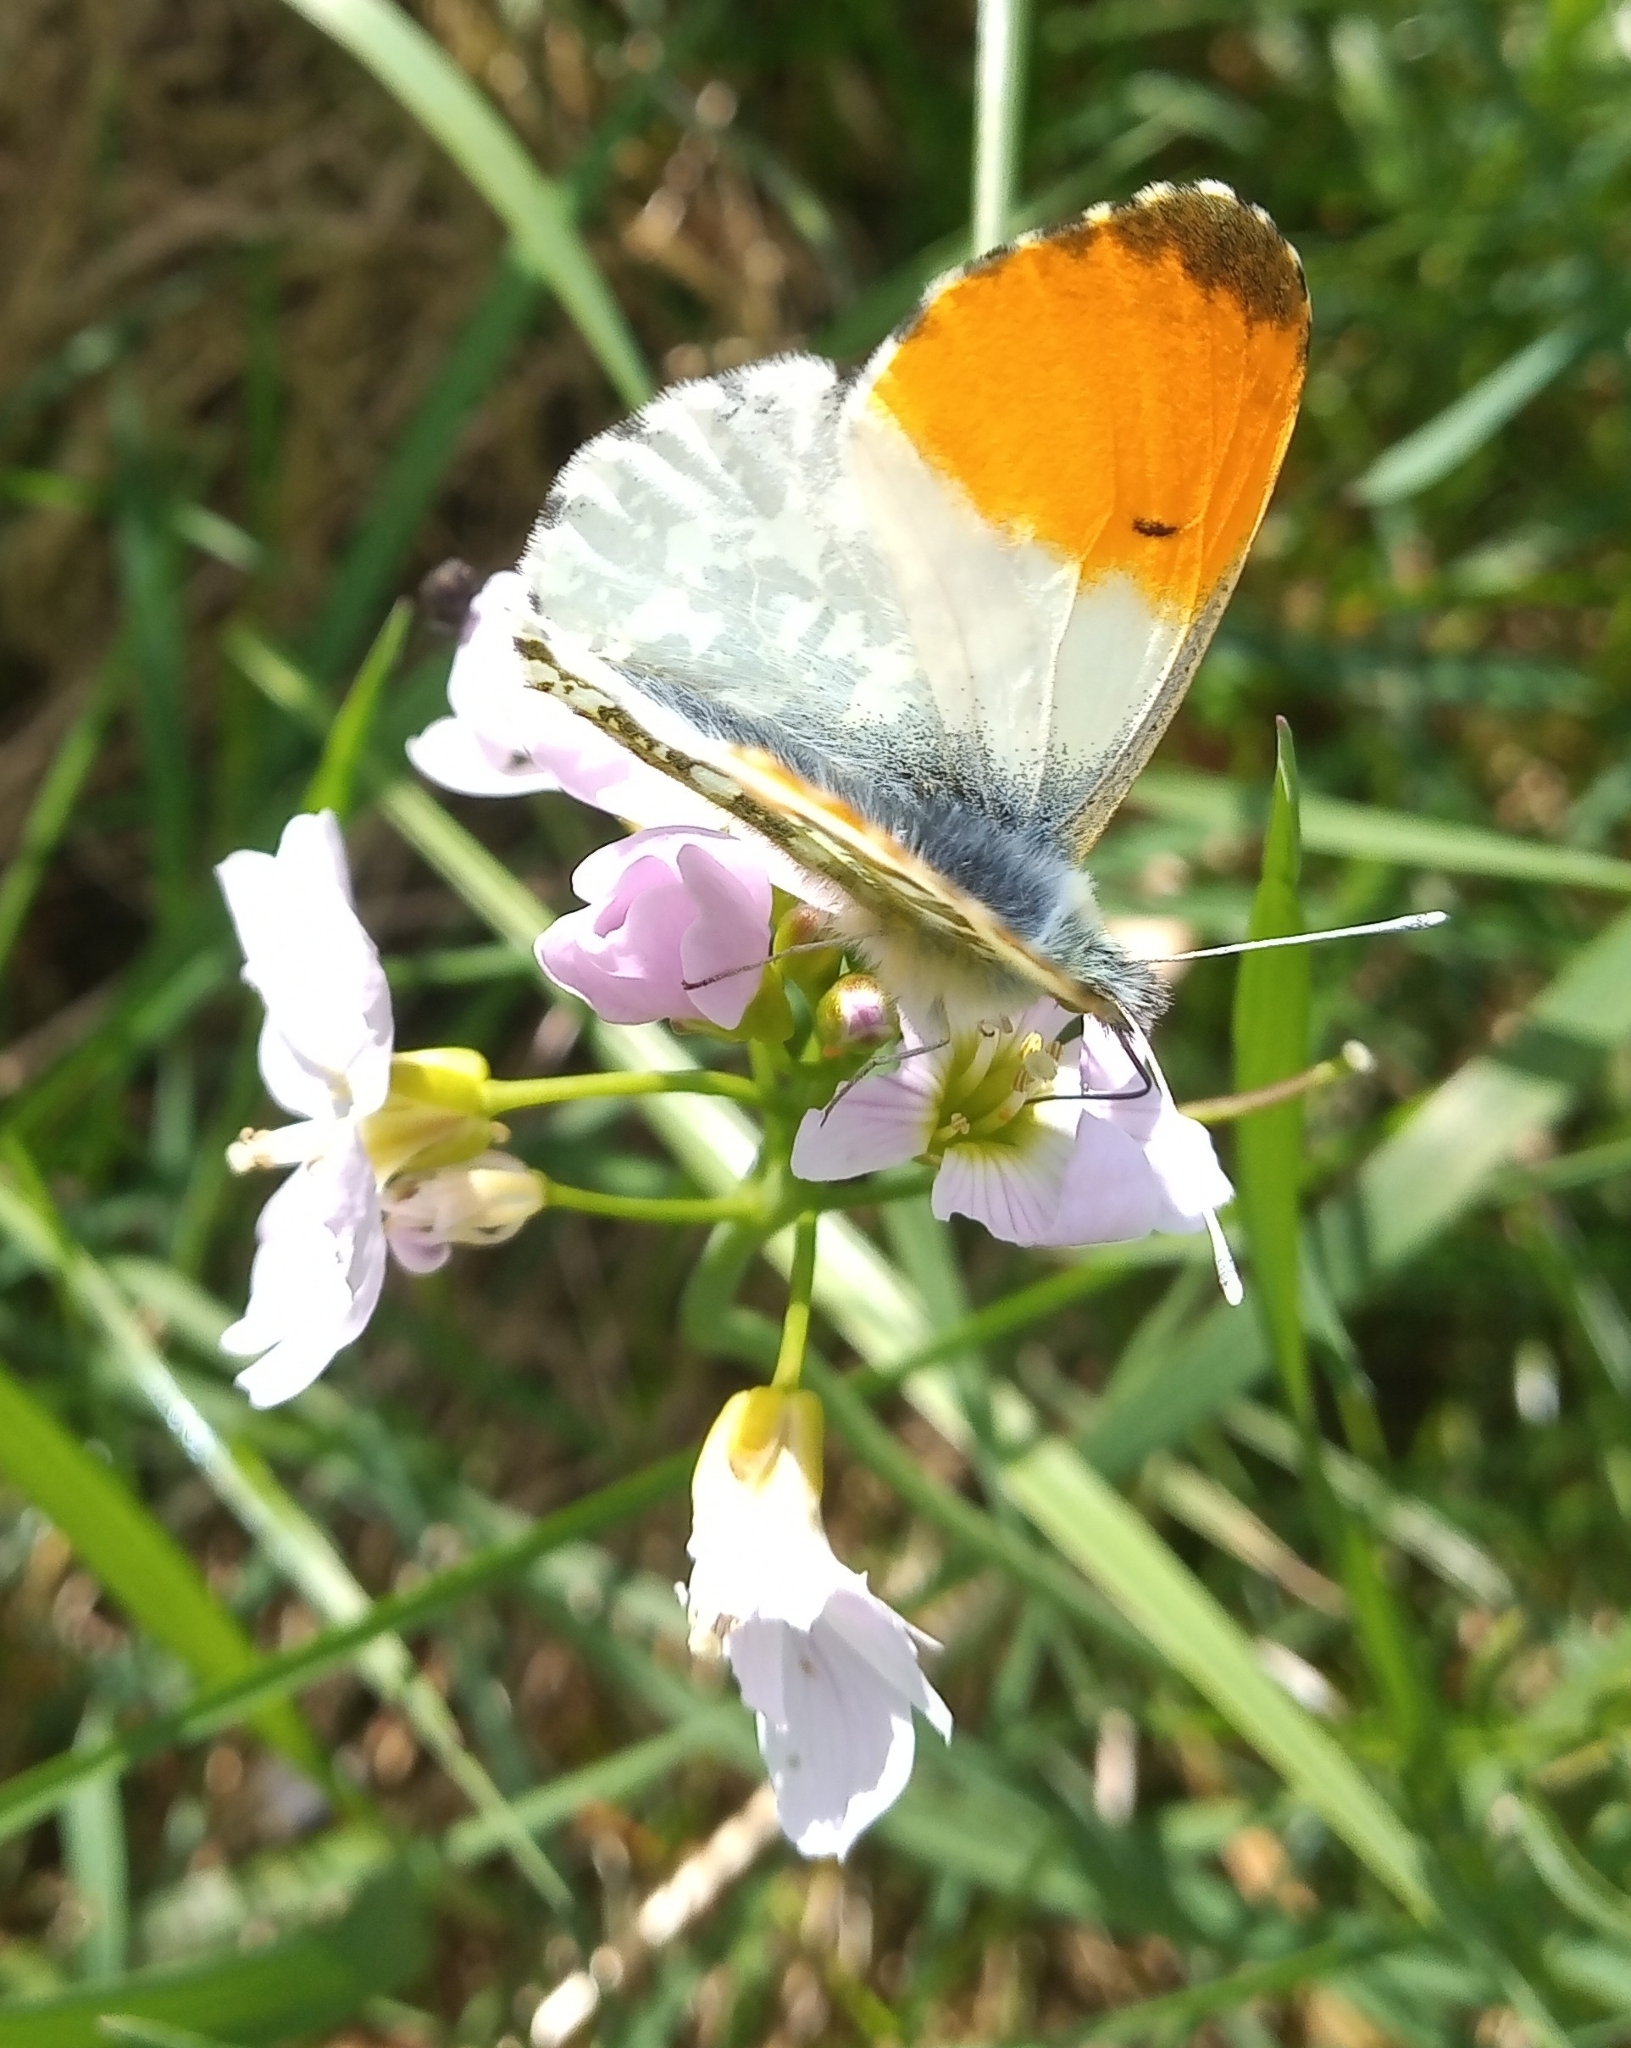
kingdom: Animalia
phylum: Arthropoda
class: Insecta
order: Lepidoptera
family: Pieridae
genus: Anthocharis
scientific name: Anthocharis cardamines
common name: Orange-tip
